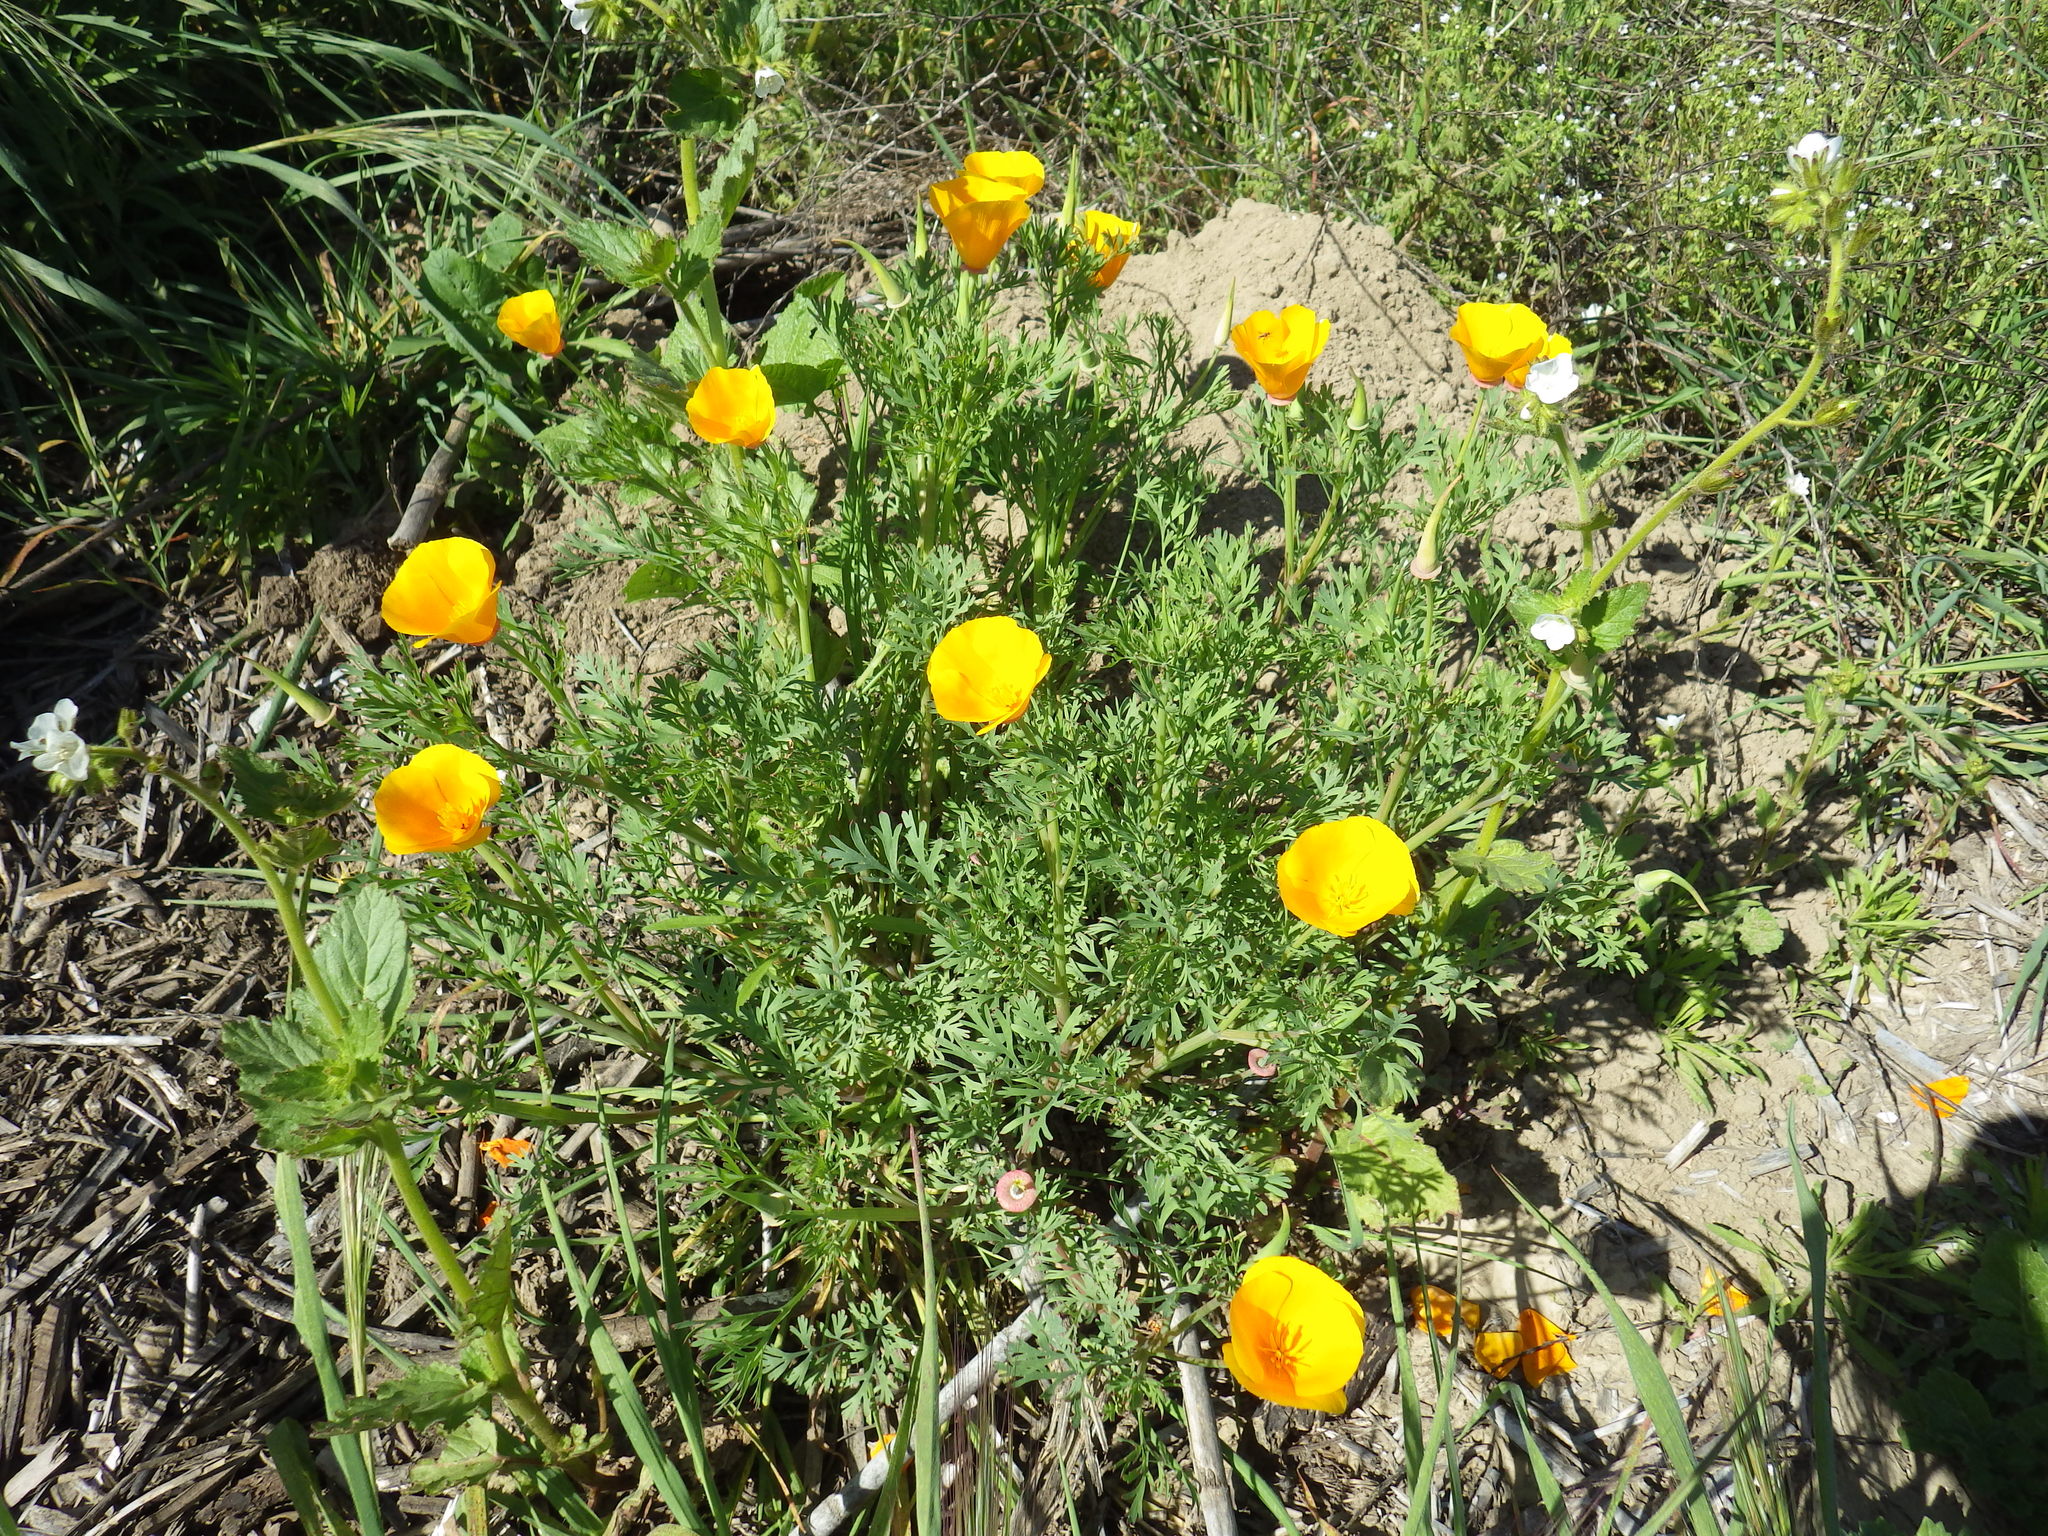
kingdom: Plantae
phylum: Tracheophyta
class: Magnoliopsida
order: Ranunculales
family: Papaveraceae
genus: Eschscholzia
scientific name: Eschscholzia californica
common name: California poppy
